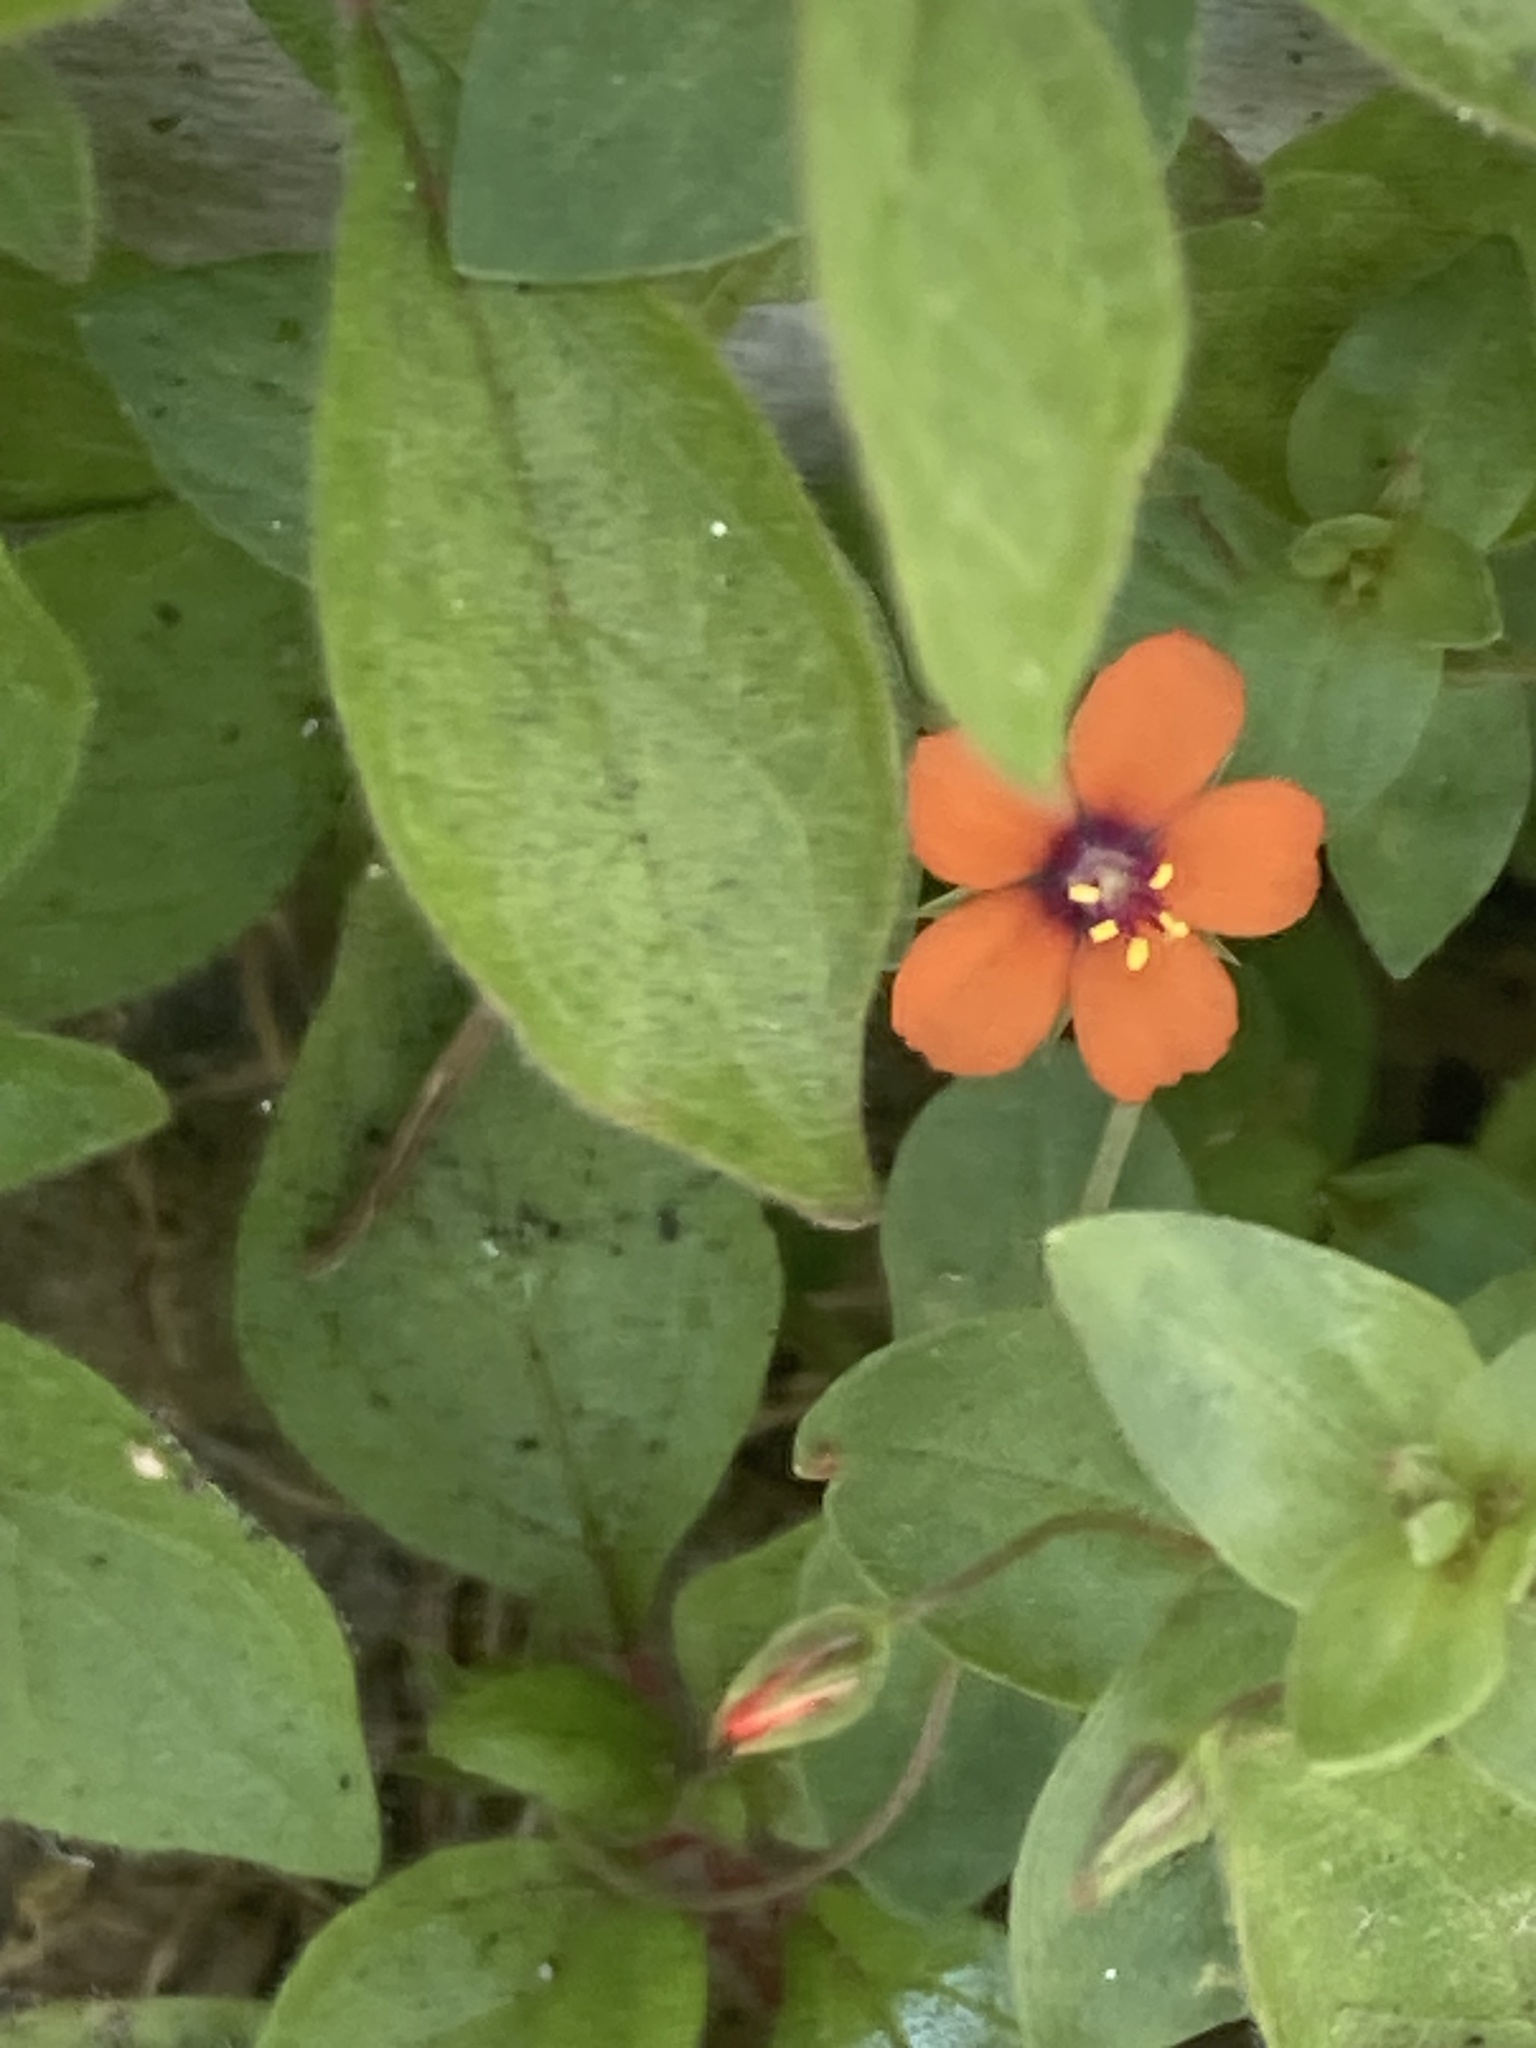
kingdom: Plantae
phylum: Tracheophyta
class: Magnoliopsida
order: Ericales
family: Primulaceae
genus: Lysimachia
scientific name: Lysimachia arvensis
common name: Scarlet pimpernel
